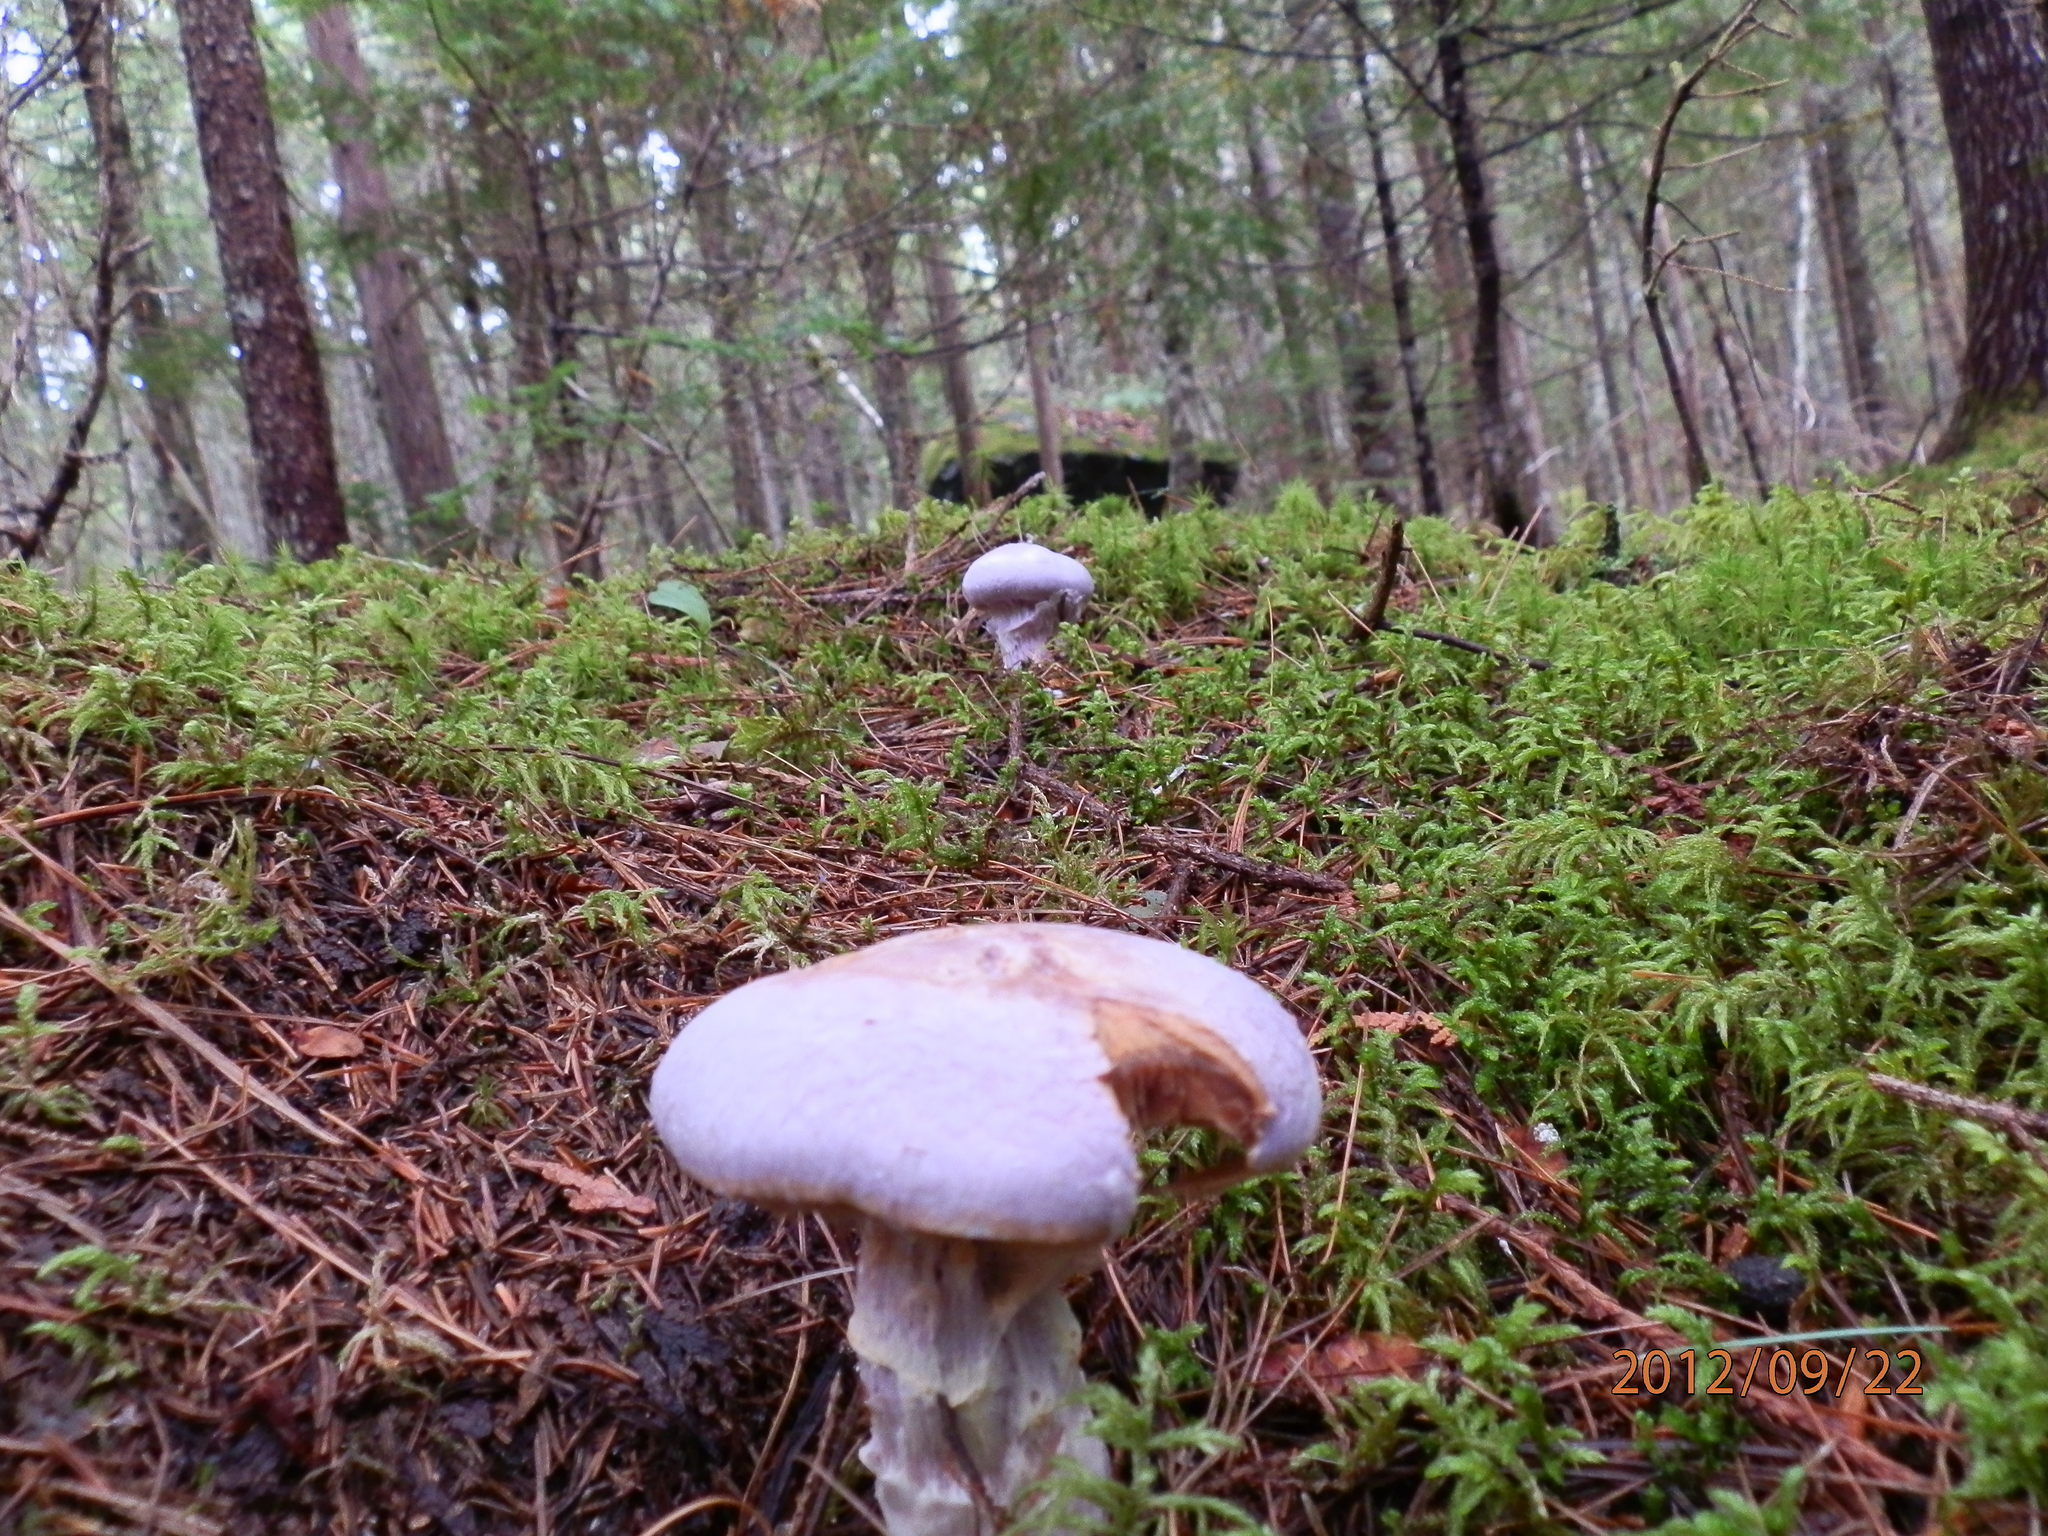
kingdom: Fungi
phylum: Basidiomycota
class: Agaricomycetes
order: Agaricales
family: Cortinariaceae
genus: Cortinarius
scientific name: Cortinarius traganus
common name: Gassy webcap
